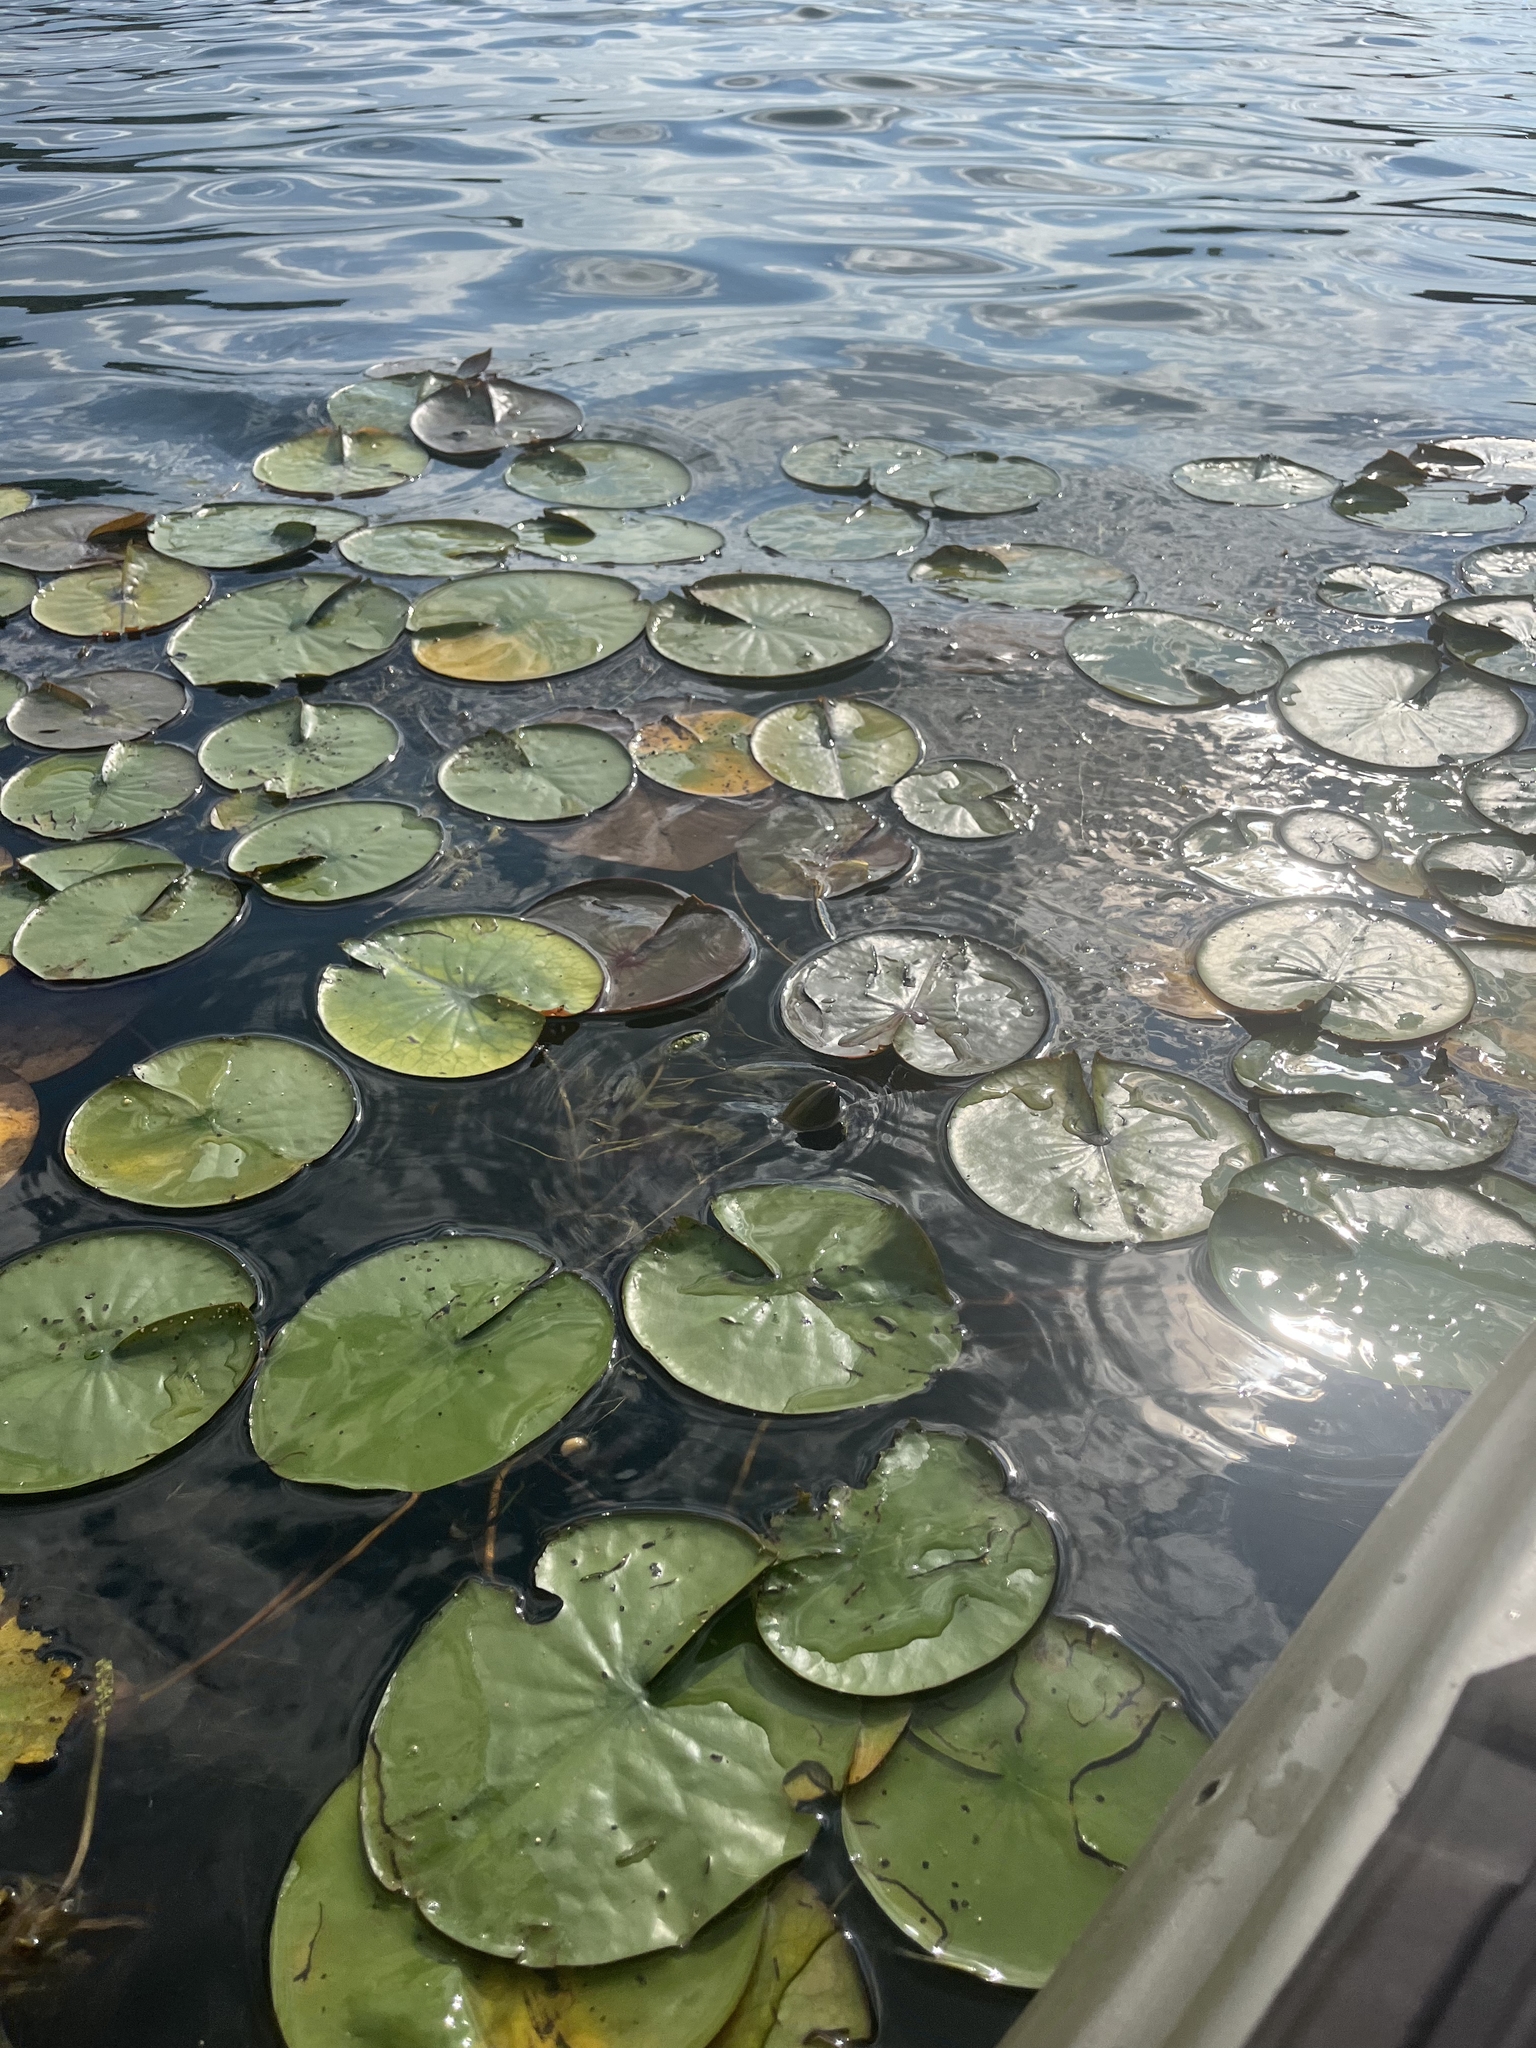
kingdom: Plantae
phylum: Tracheophyta
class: Magnoliopsida
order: Nymphaeales
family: Nymphaeaceae
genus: Nymphaea
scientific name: Nymphaea odorata
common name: Fragrant water-lily
